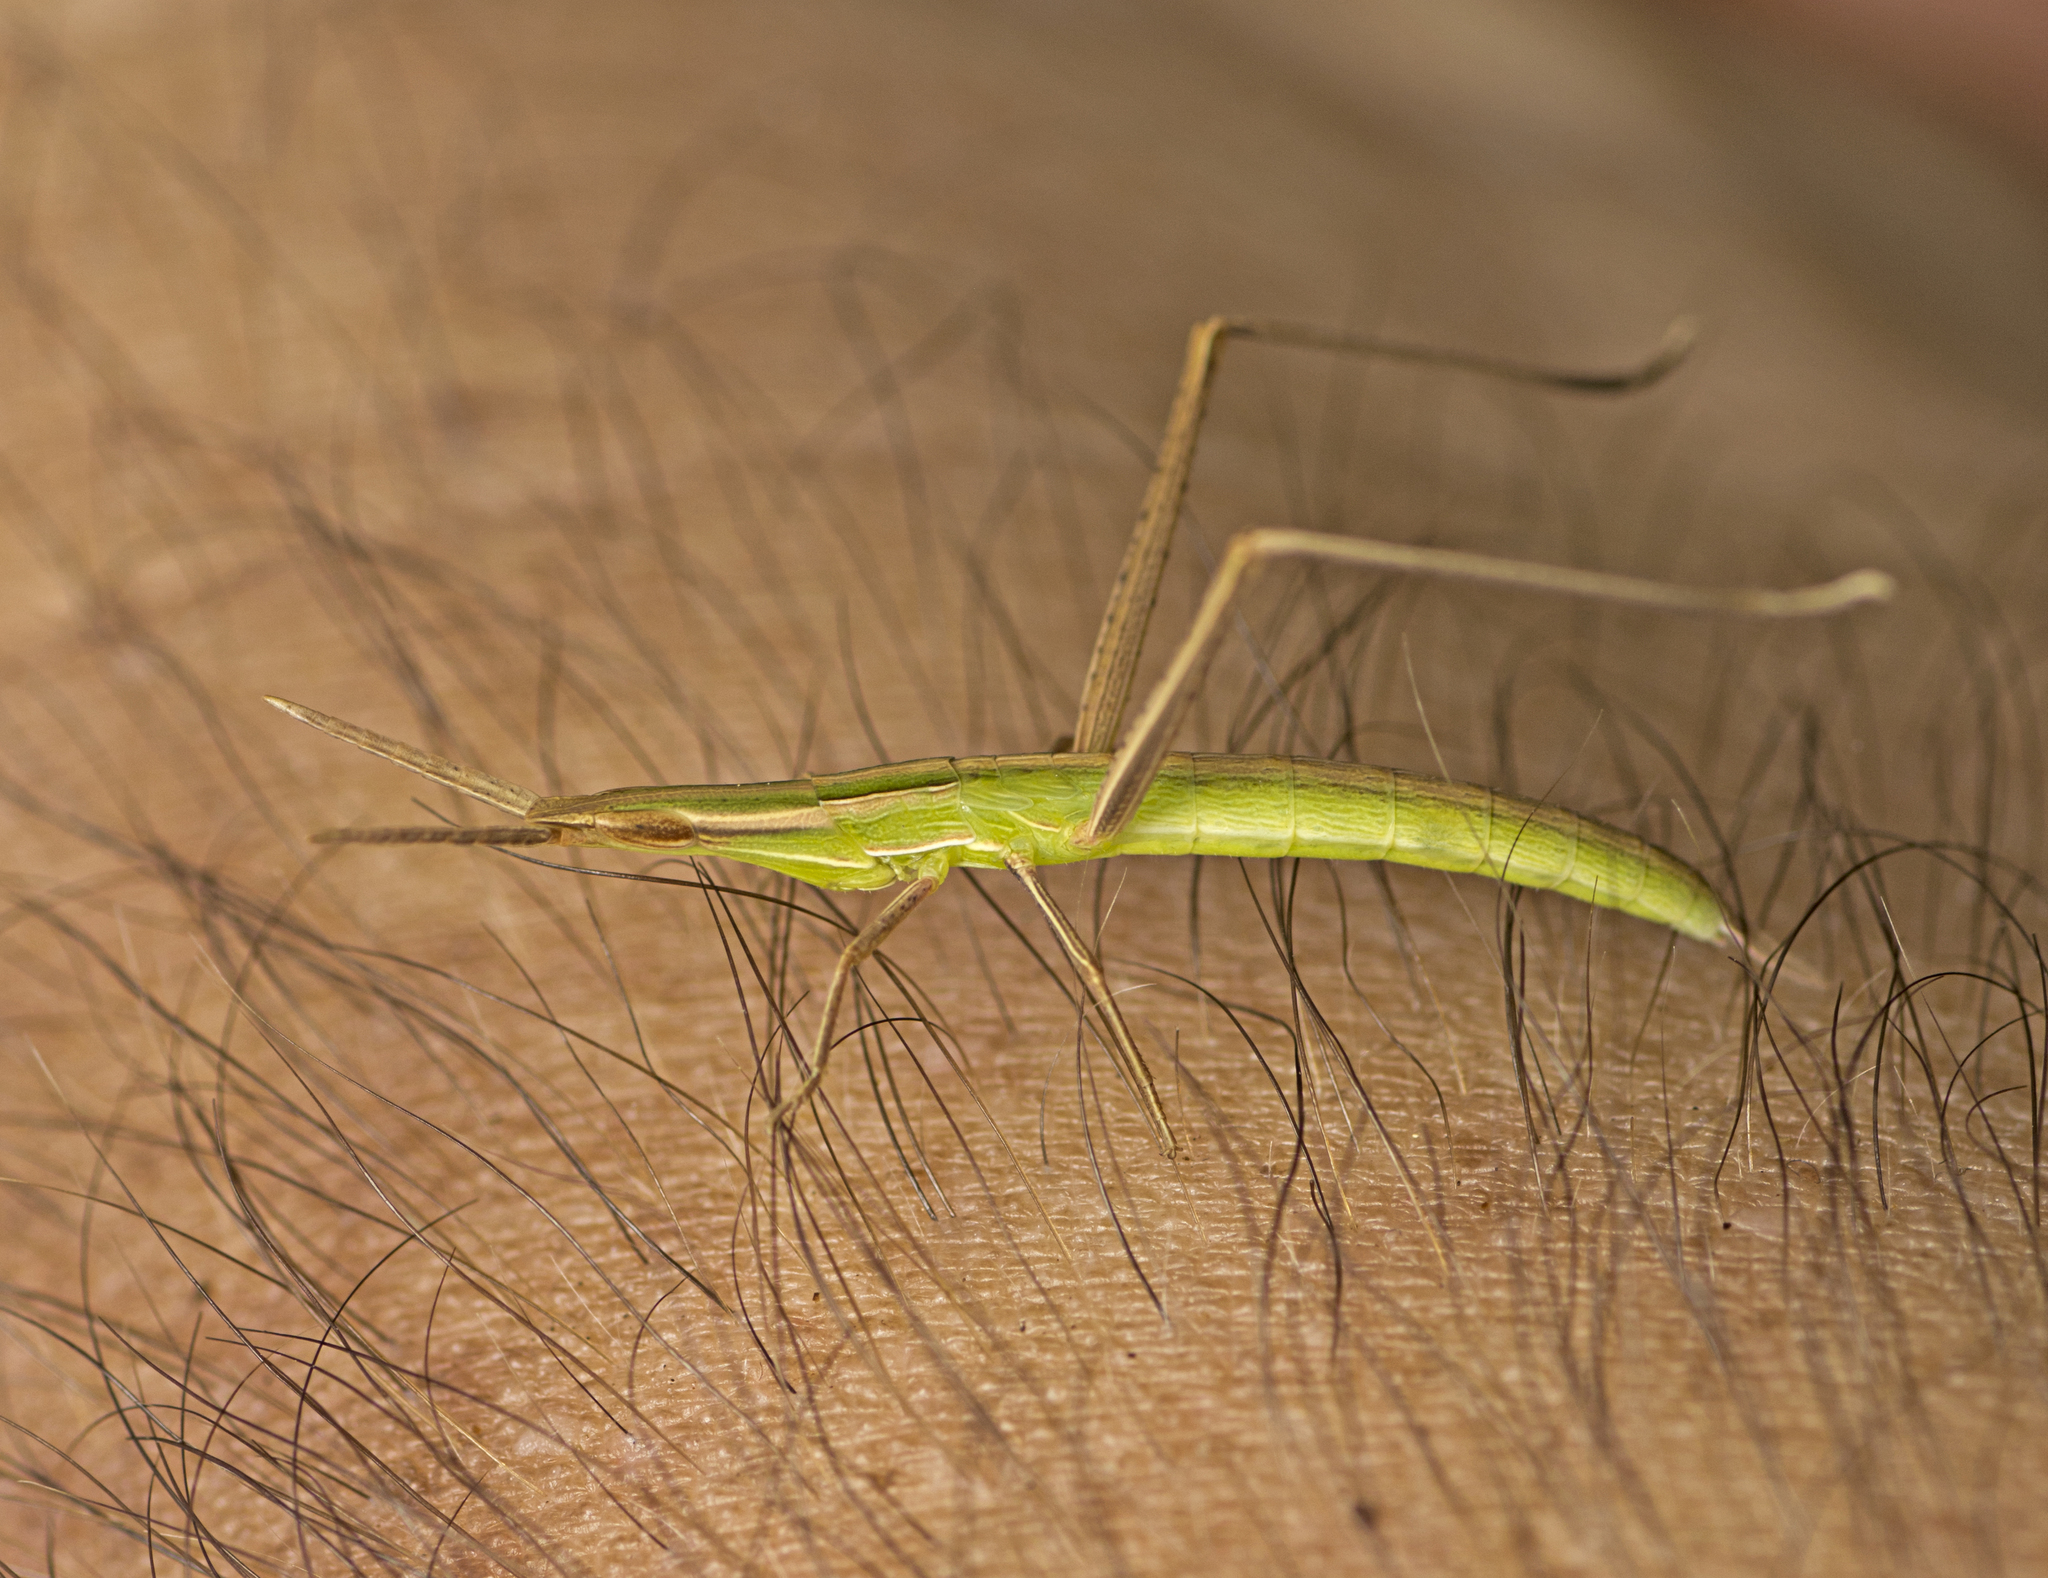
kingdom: Animalia
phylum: Arthropoda
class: Insecta
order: Orthoptera
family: Acrididae
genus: Acrida
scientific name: Acrida conica
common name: Giant green slantface
